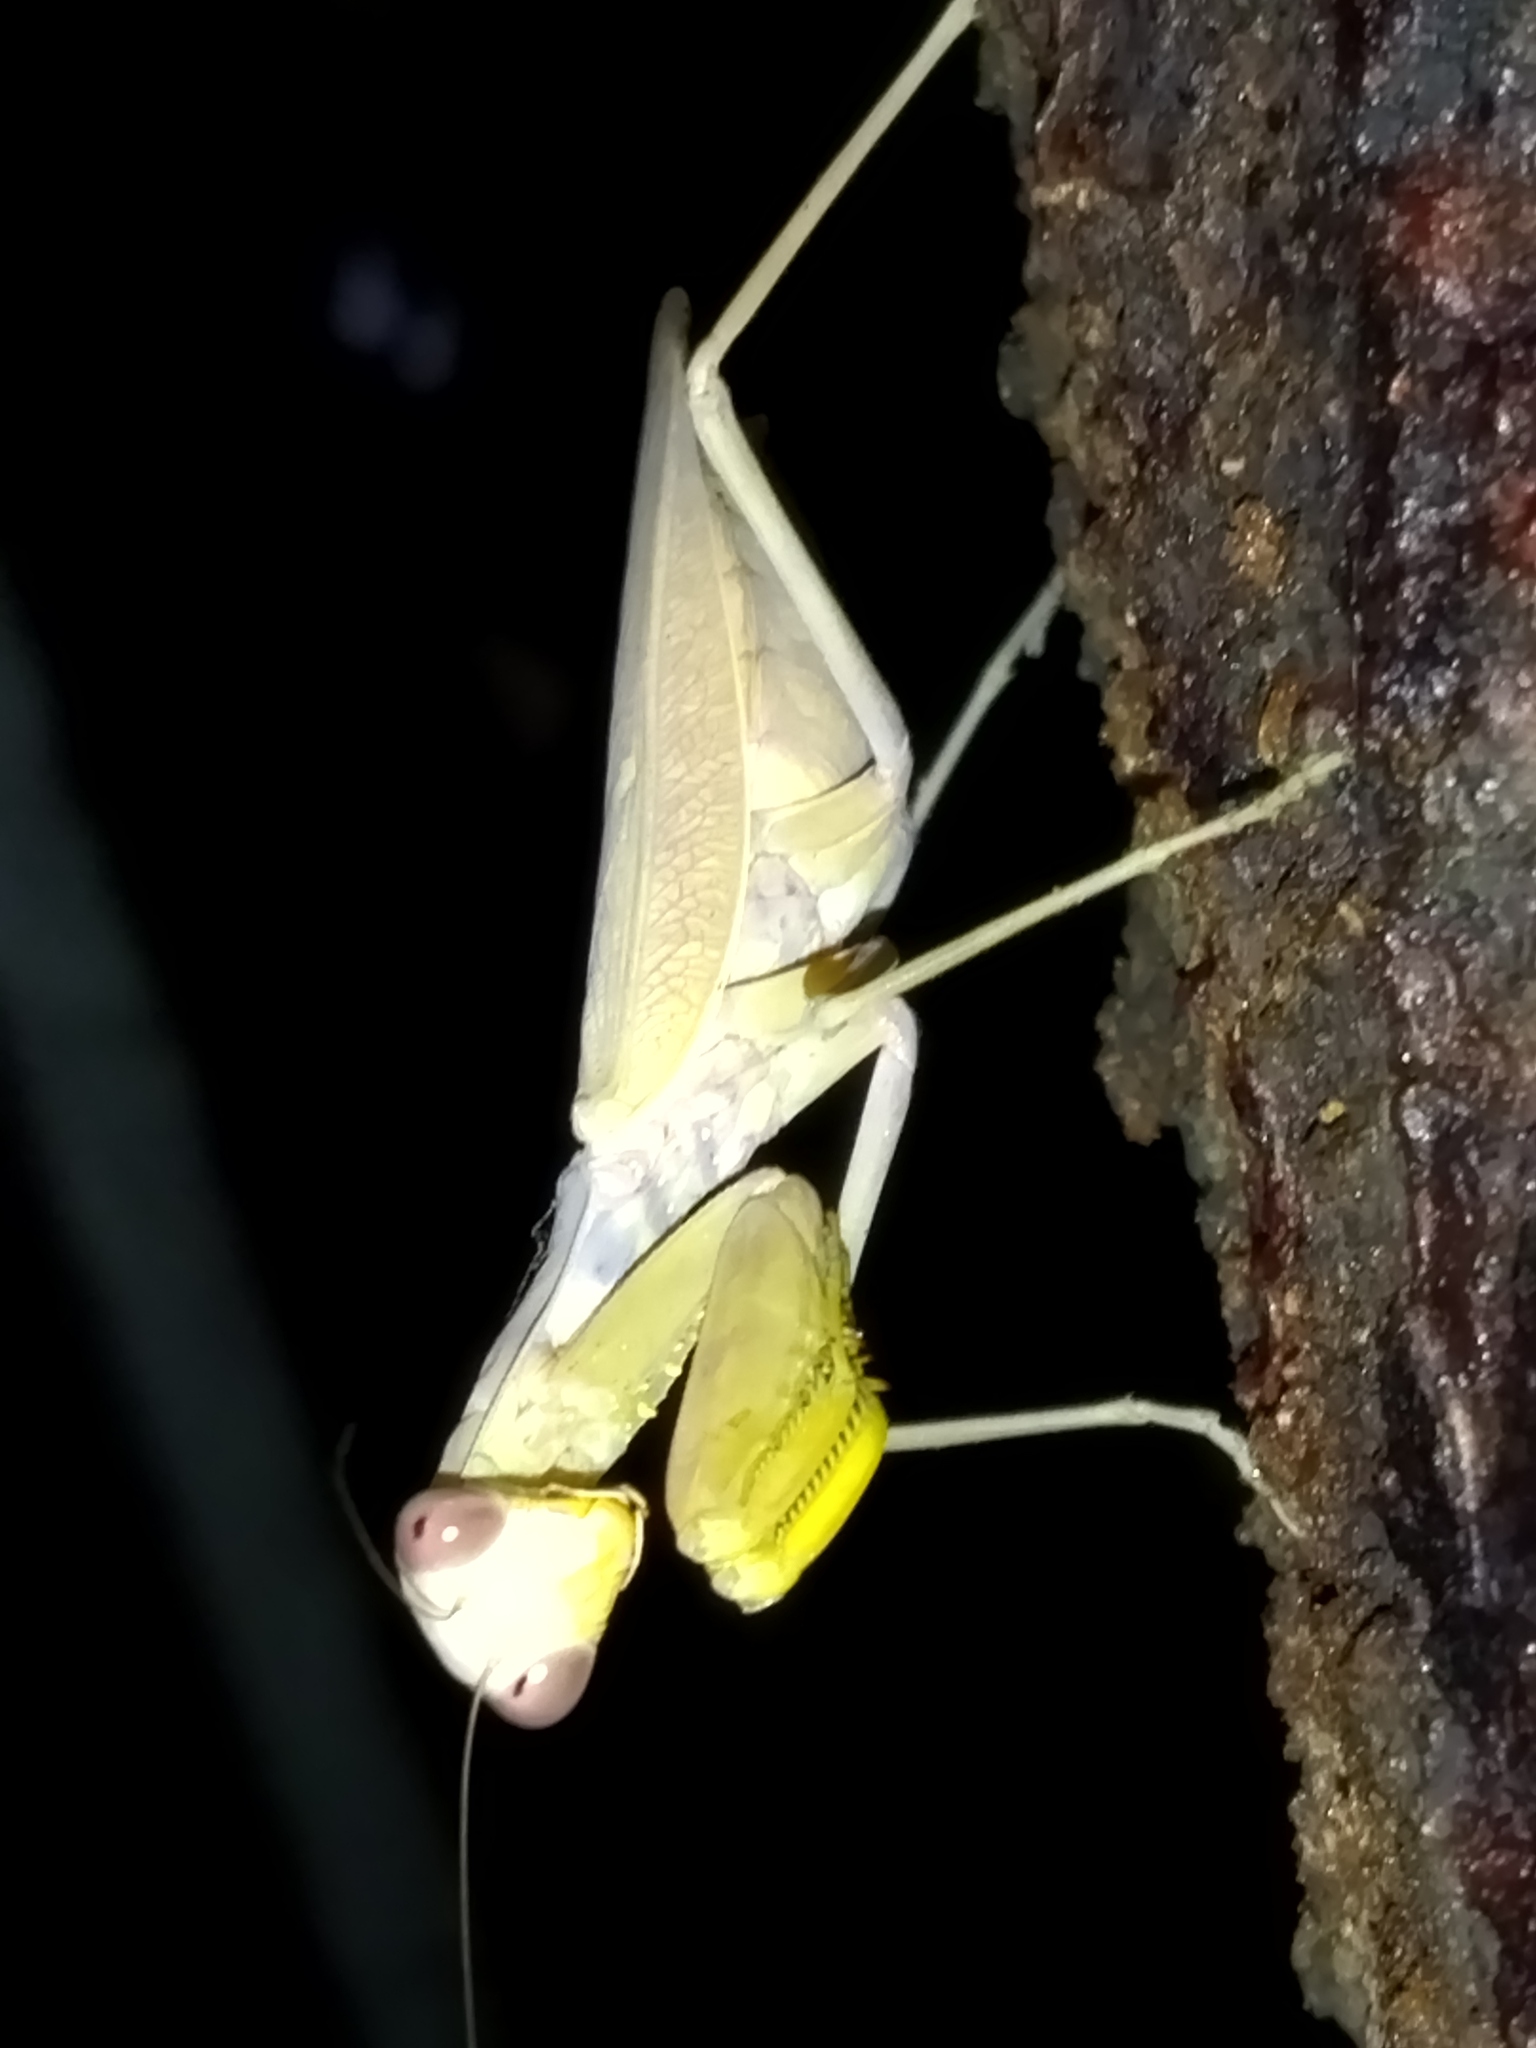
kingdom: Animalia
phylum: Arthropoda
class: Insecta
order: Mantodea
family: Mantidae
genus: Hierodula
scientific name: Hierodula transcaucasica
